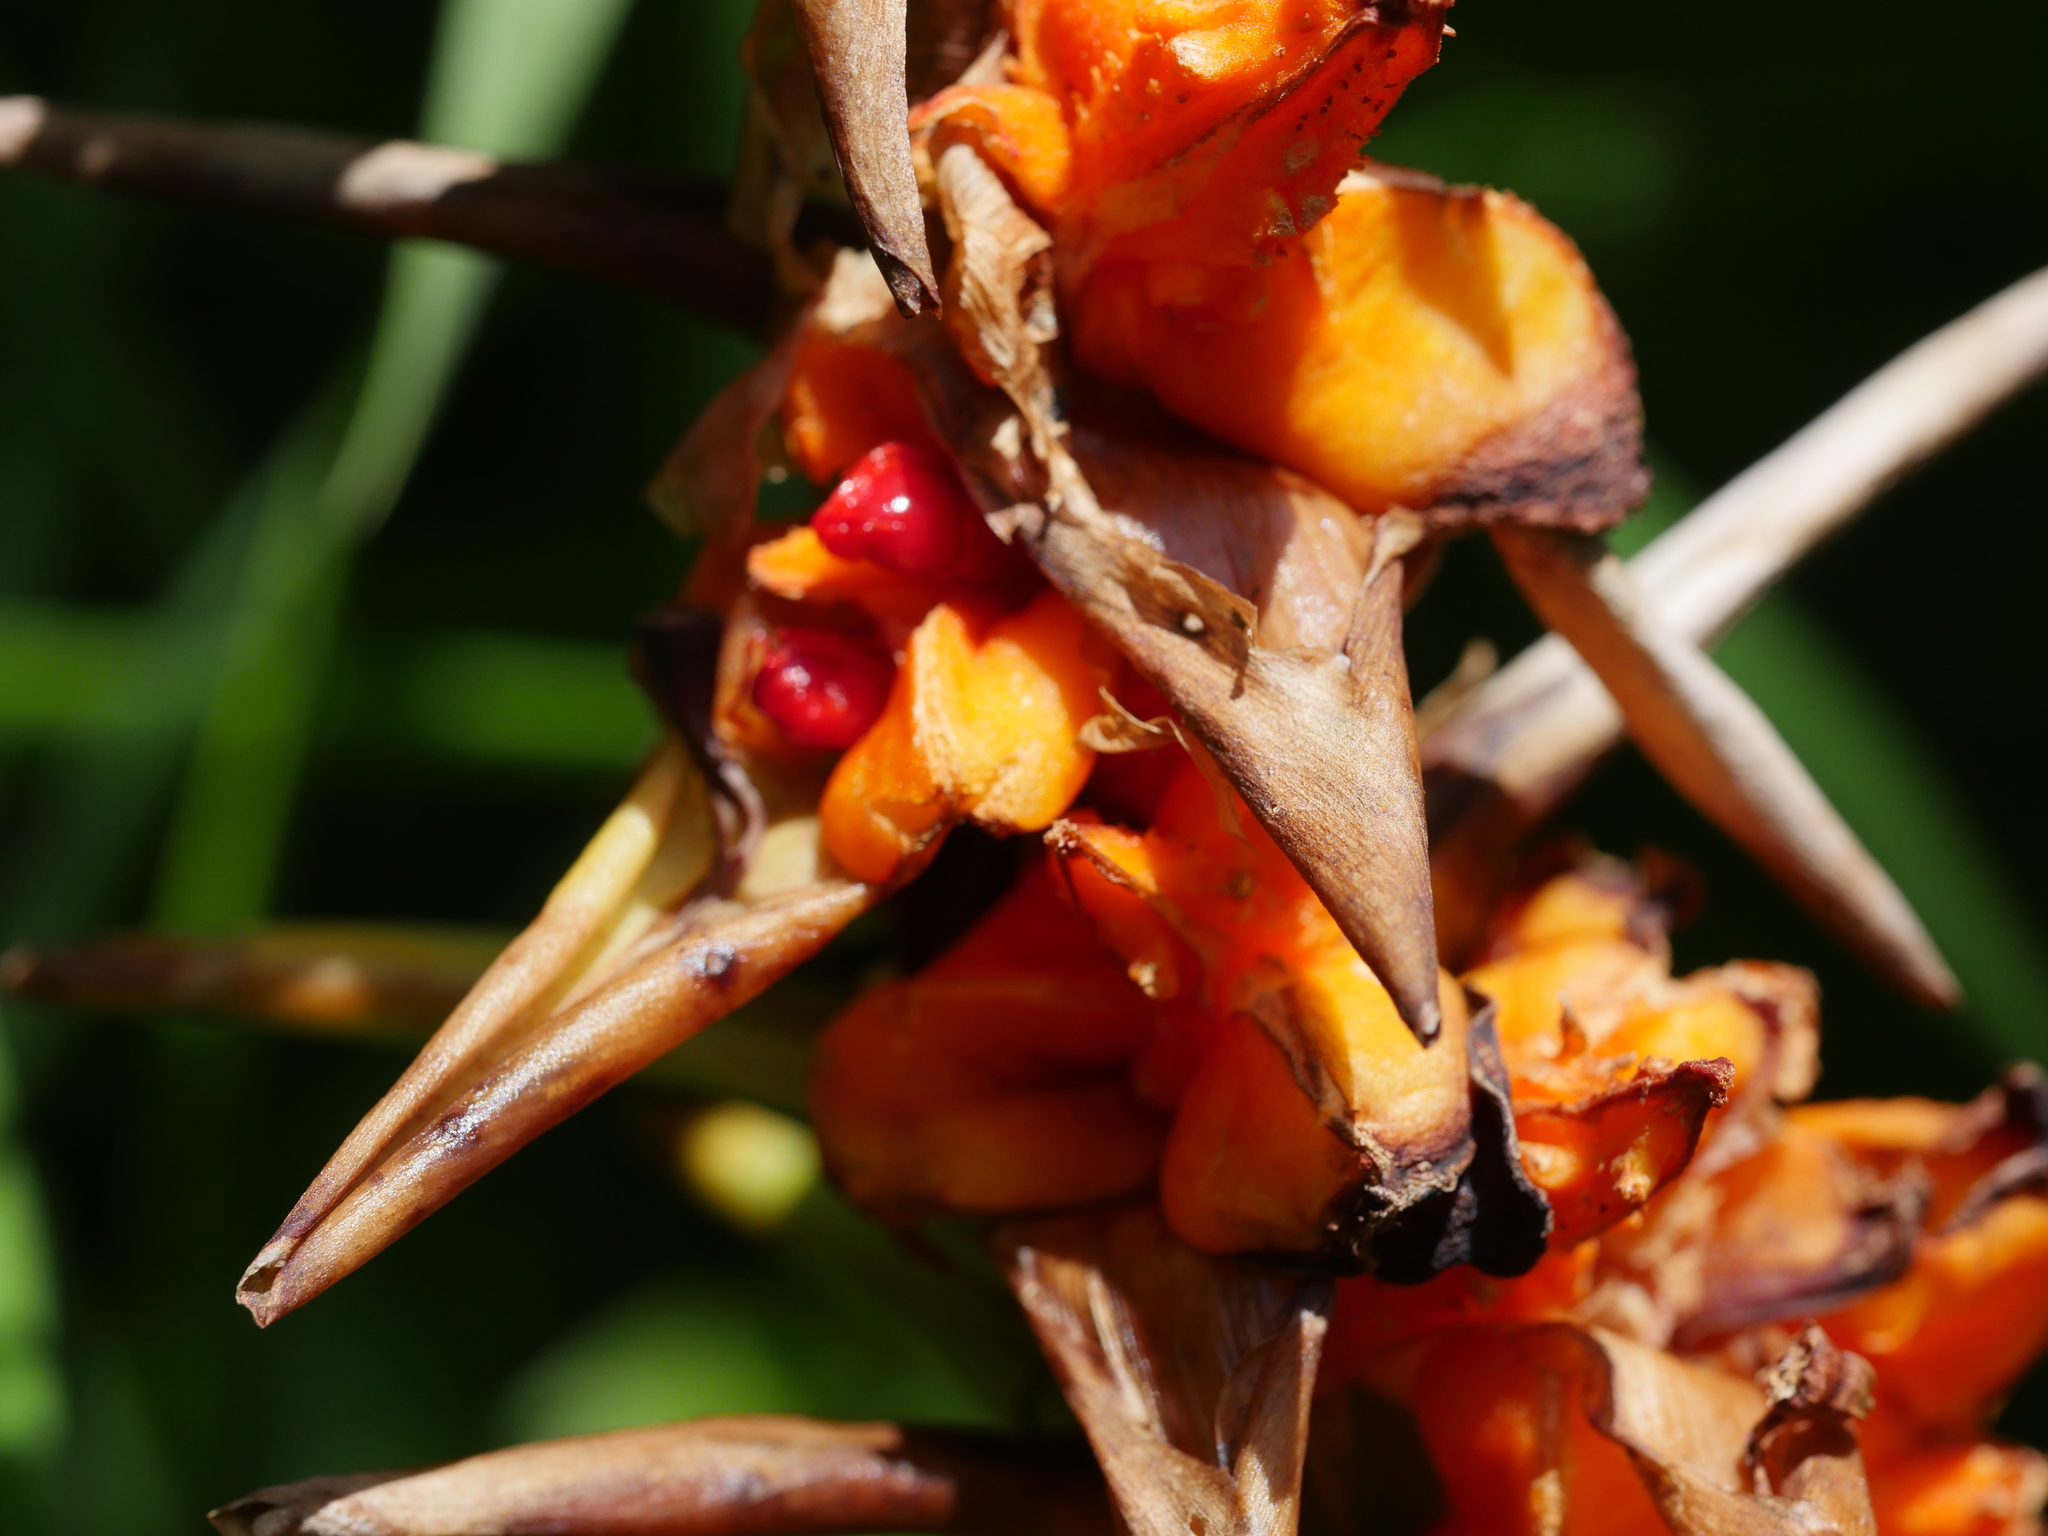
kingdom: Plantae
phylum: Tracheophyta
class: Liliopsida
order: Zingiberales
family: Zingiberaceae
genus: Hedychium
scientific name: Hedychium gardnerianum
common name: Himalayan ginger
